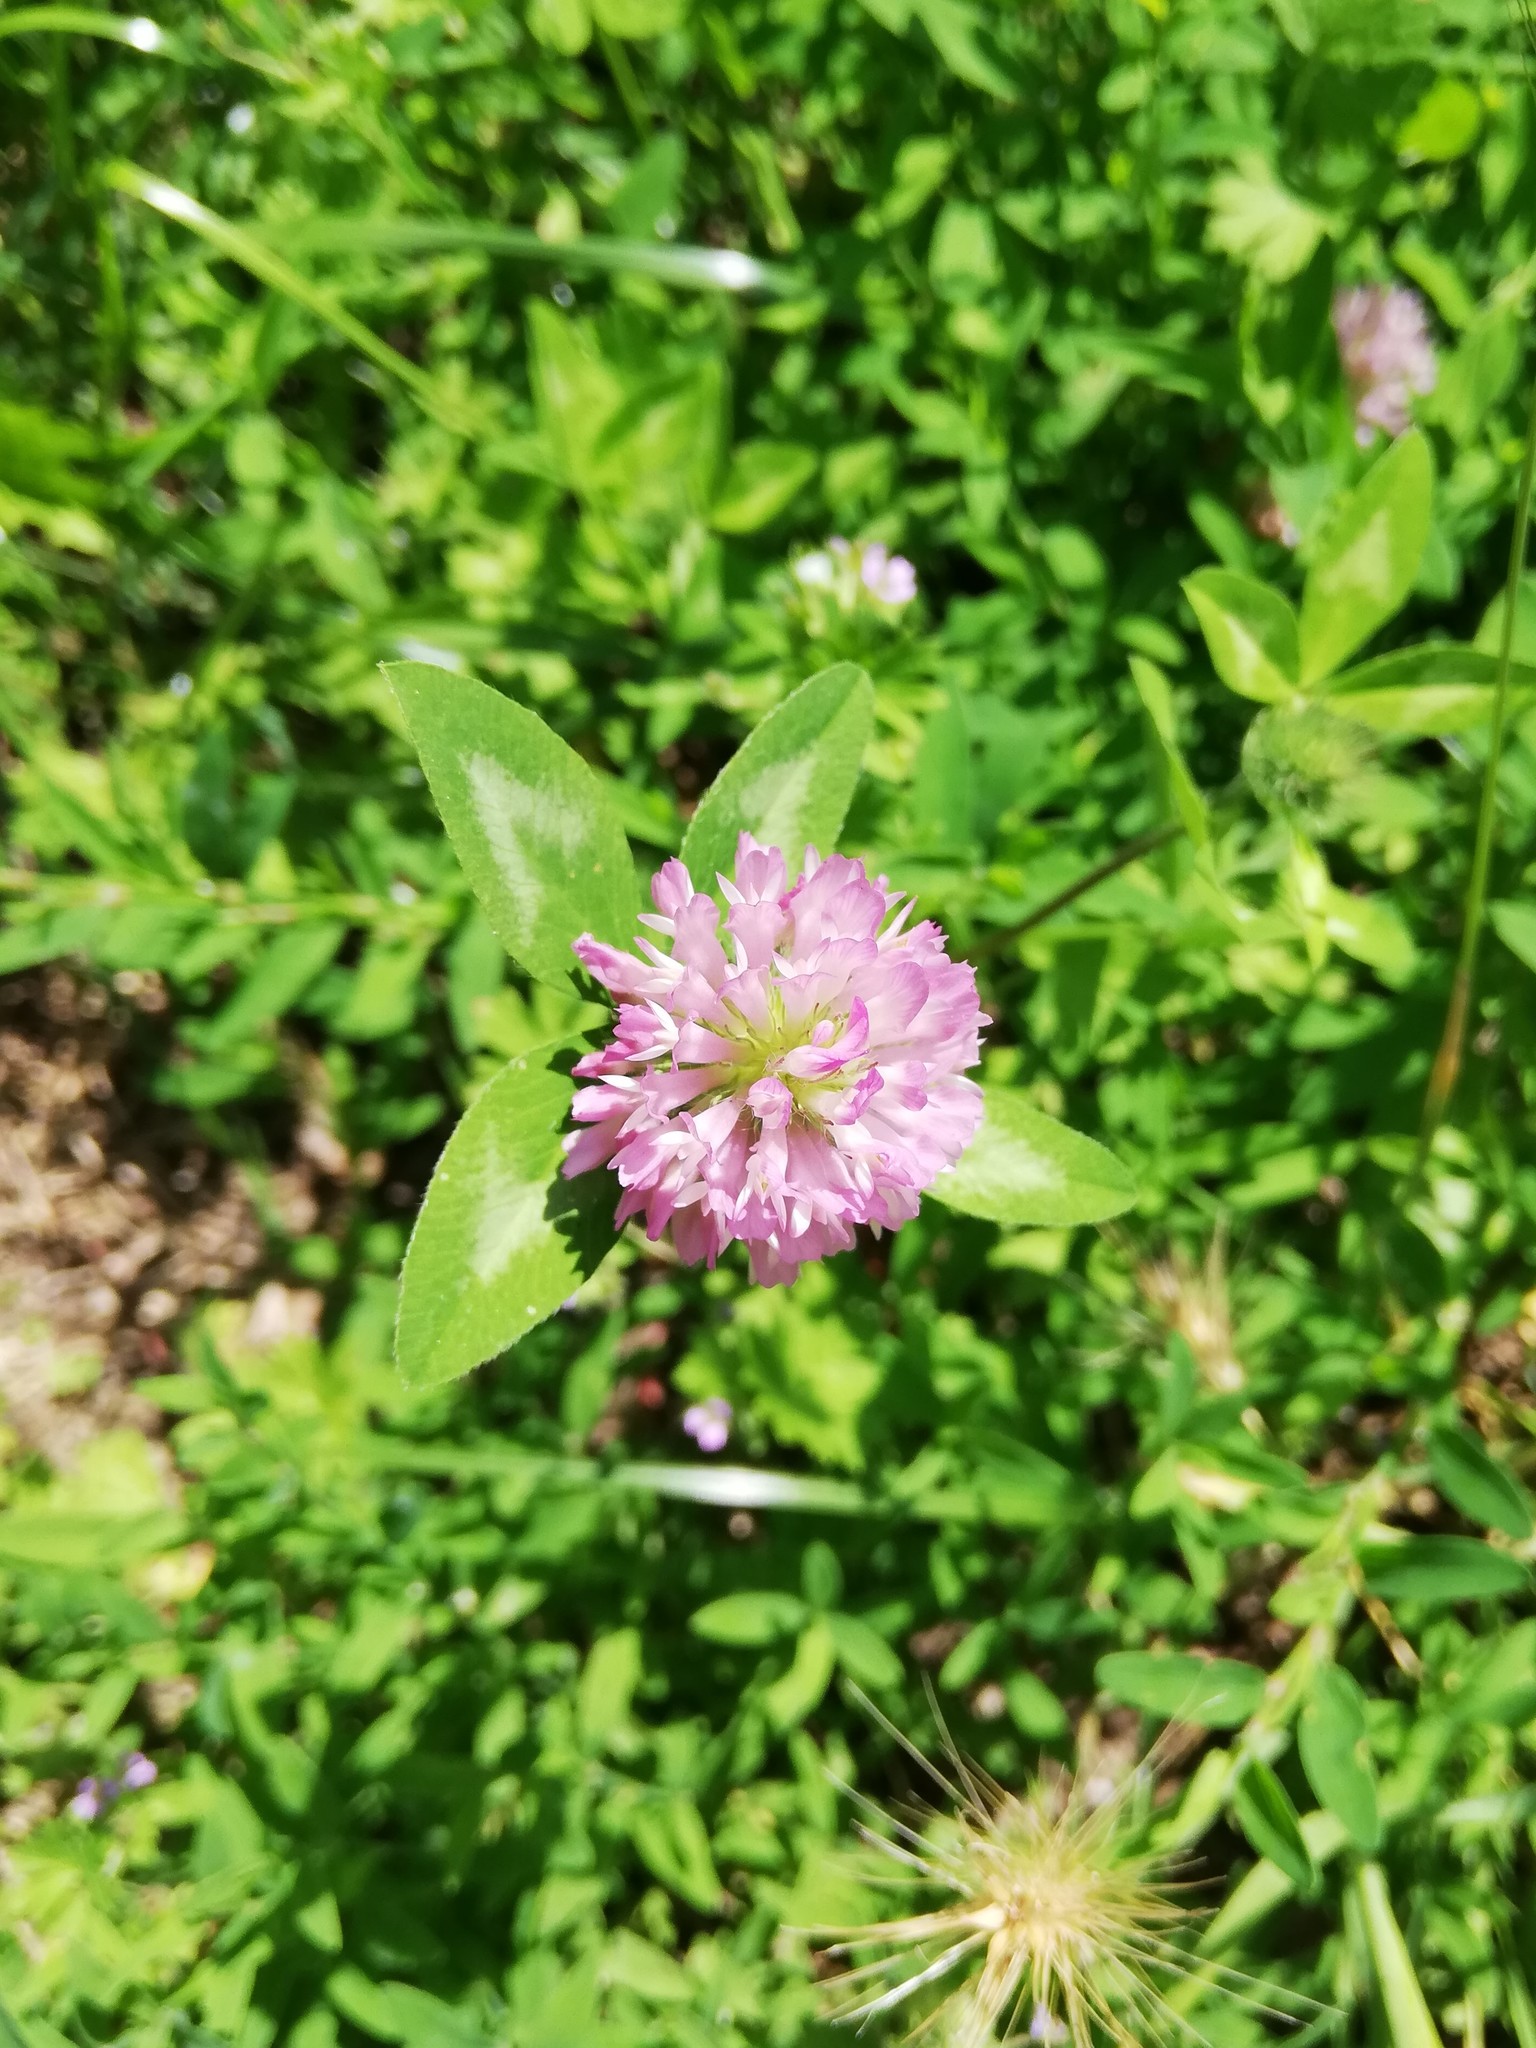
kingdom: Plantae
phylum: Tracheophyta
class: Magnoliopsida
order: Fabales
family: Fabaceae
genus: Trifolium
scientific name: Trifolium pratense
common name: Red clover
